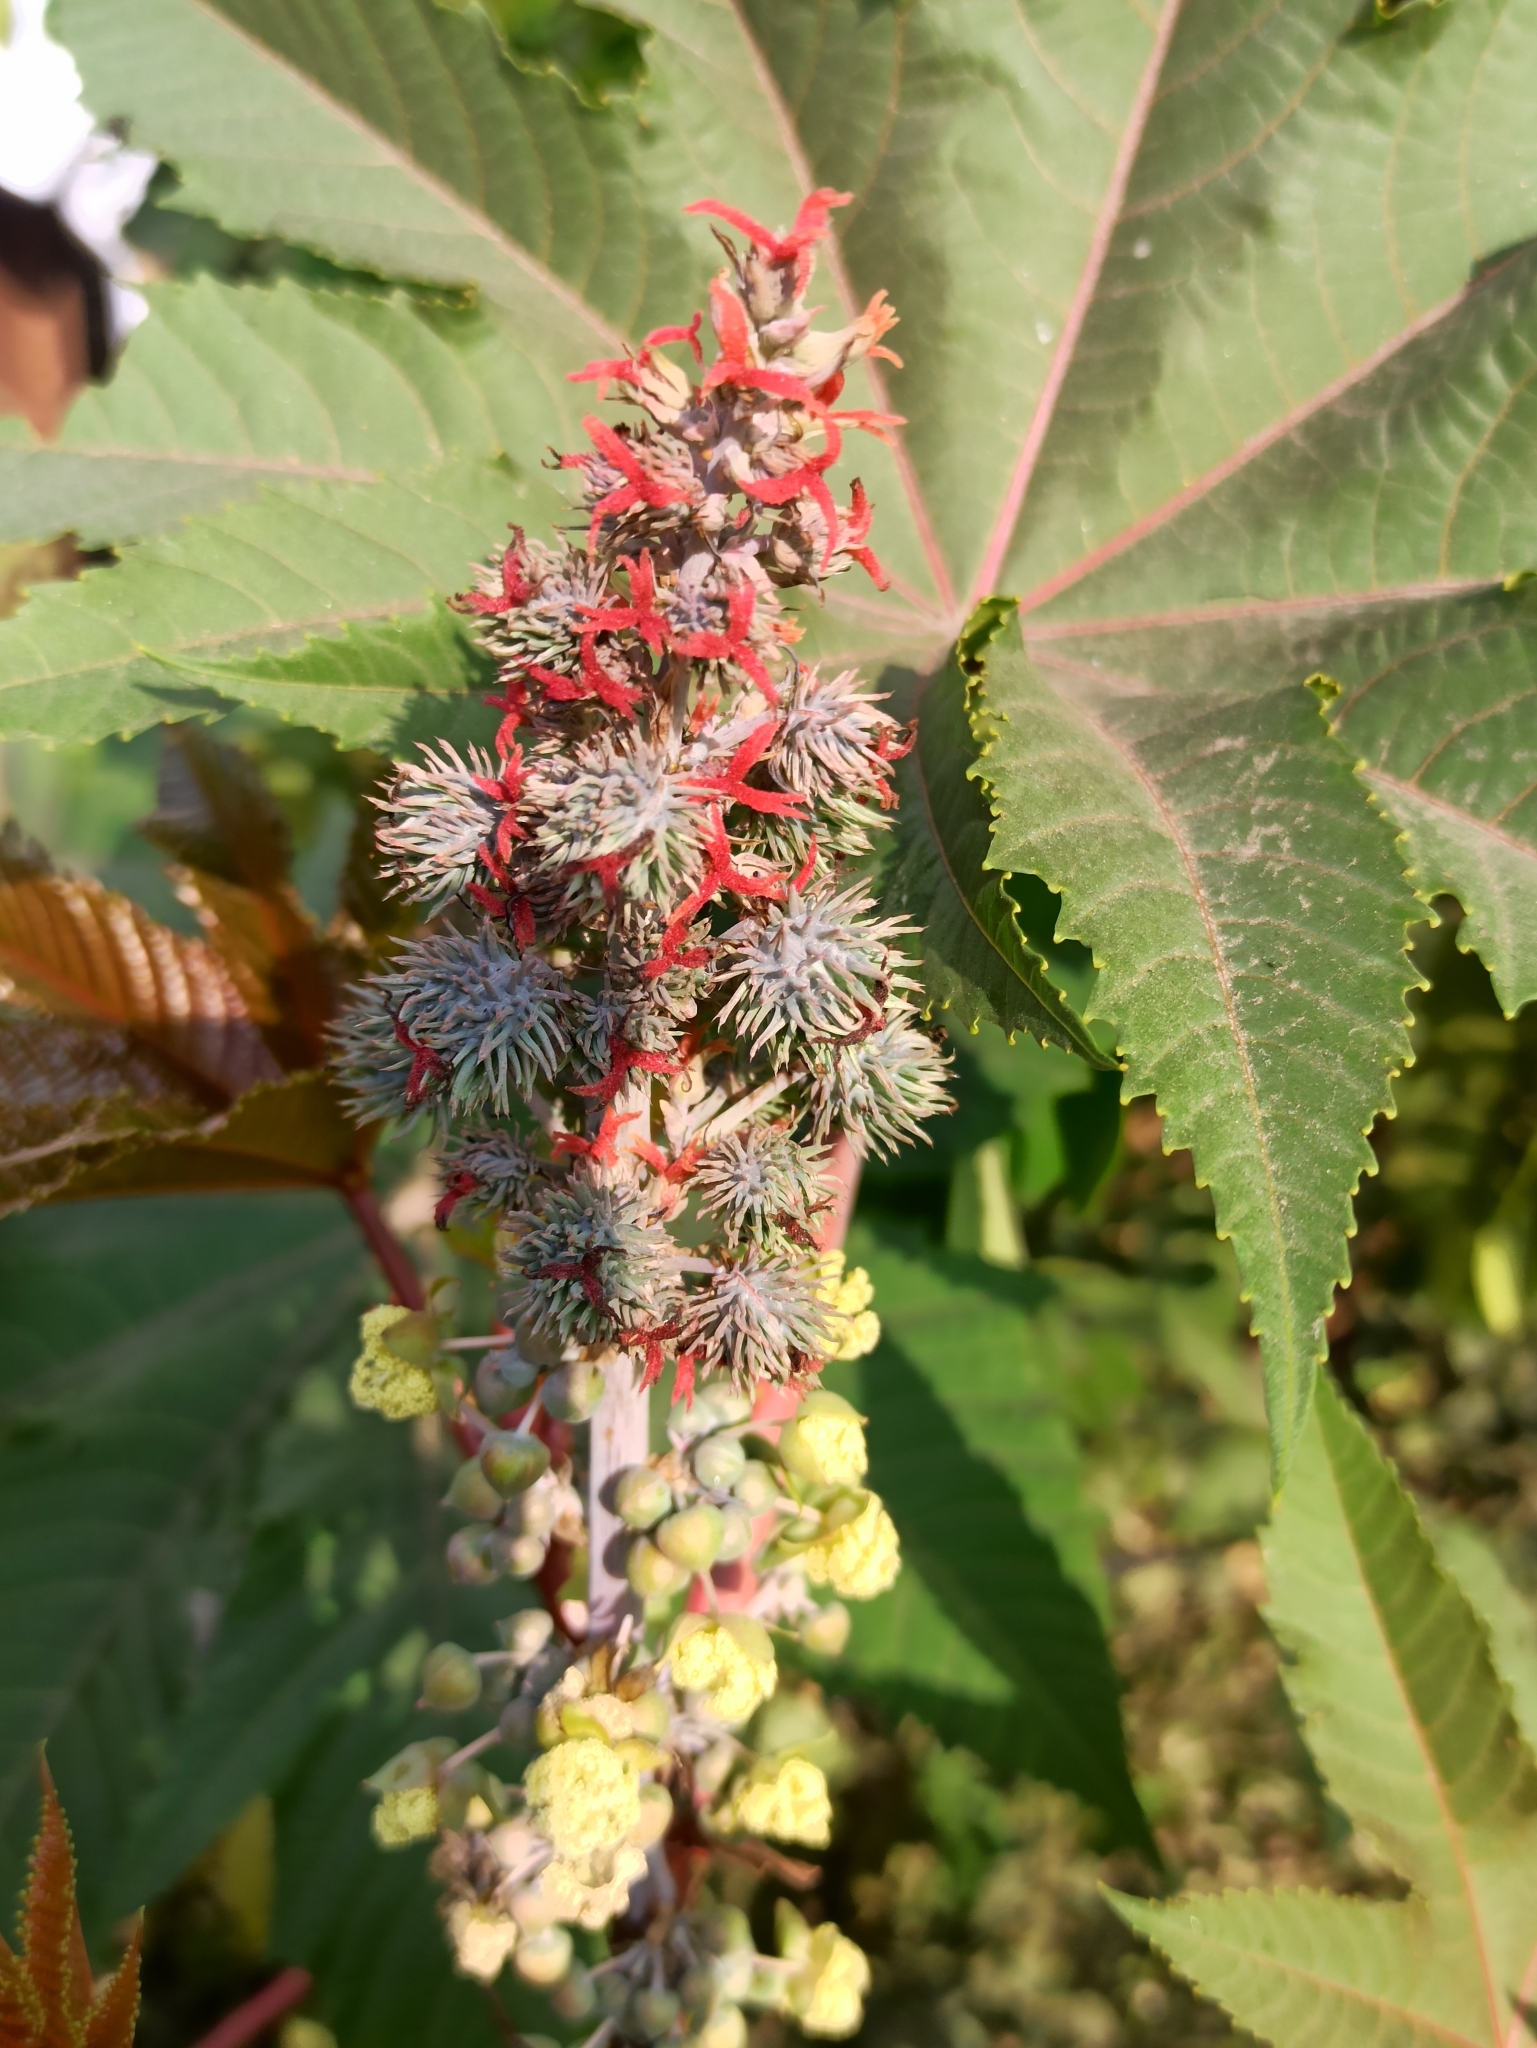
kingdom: Plantae
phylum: Tracheophyta
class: Magnoliopsida
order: Malpighiales
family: Euphorbiaceae
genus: Ricinus
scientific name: Ricinus communis
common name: Castor-oil-plant
